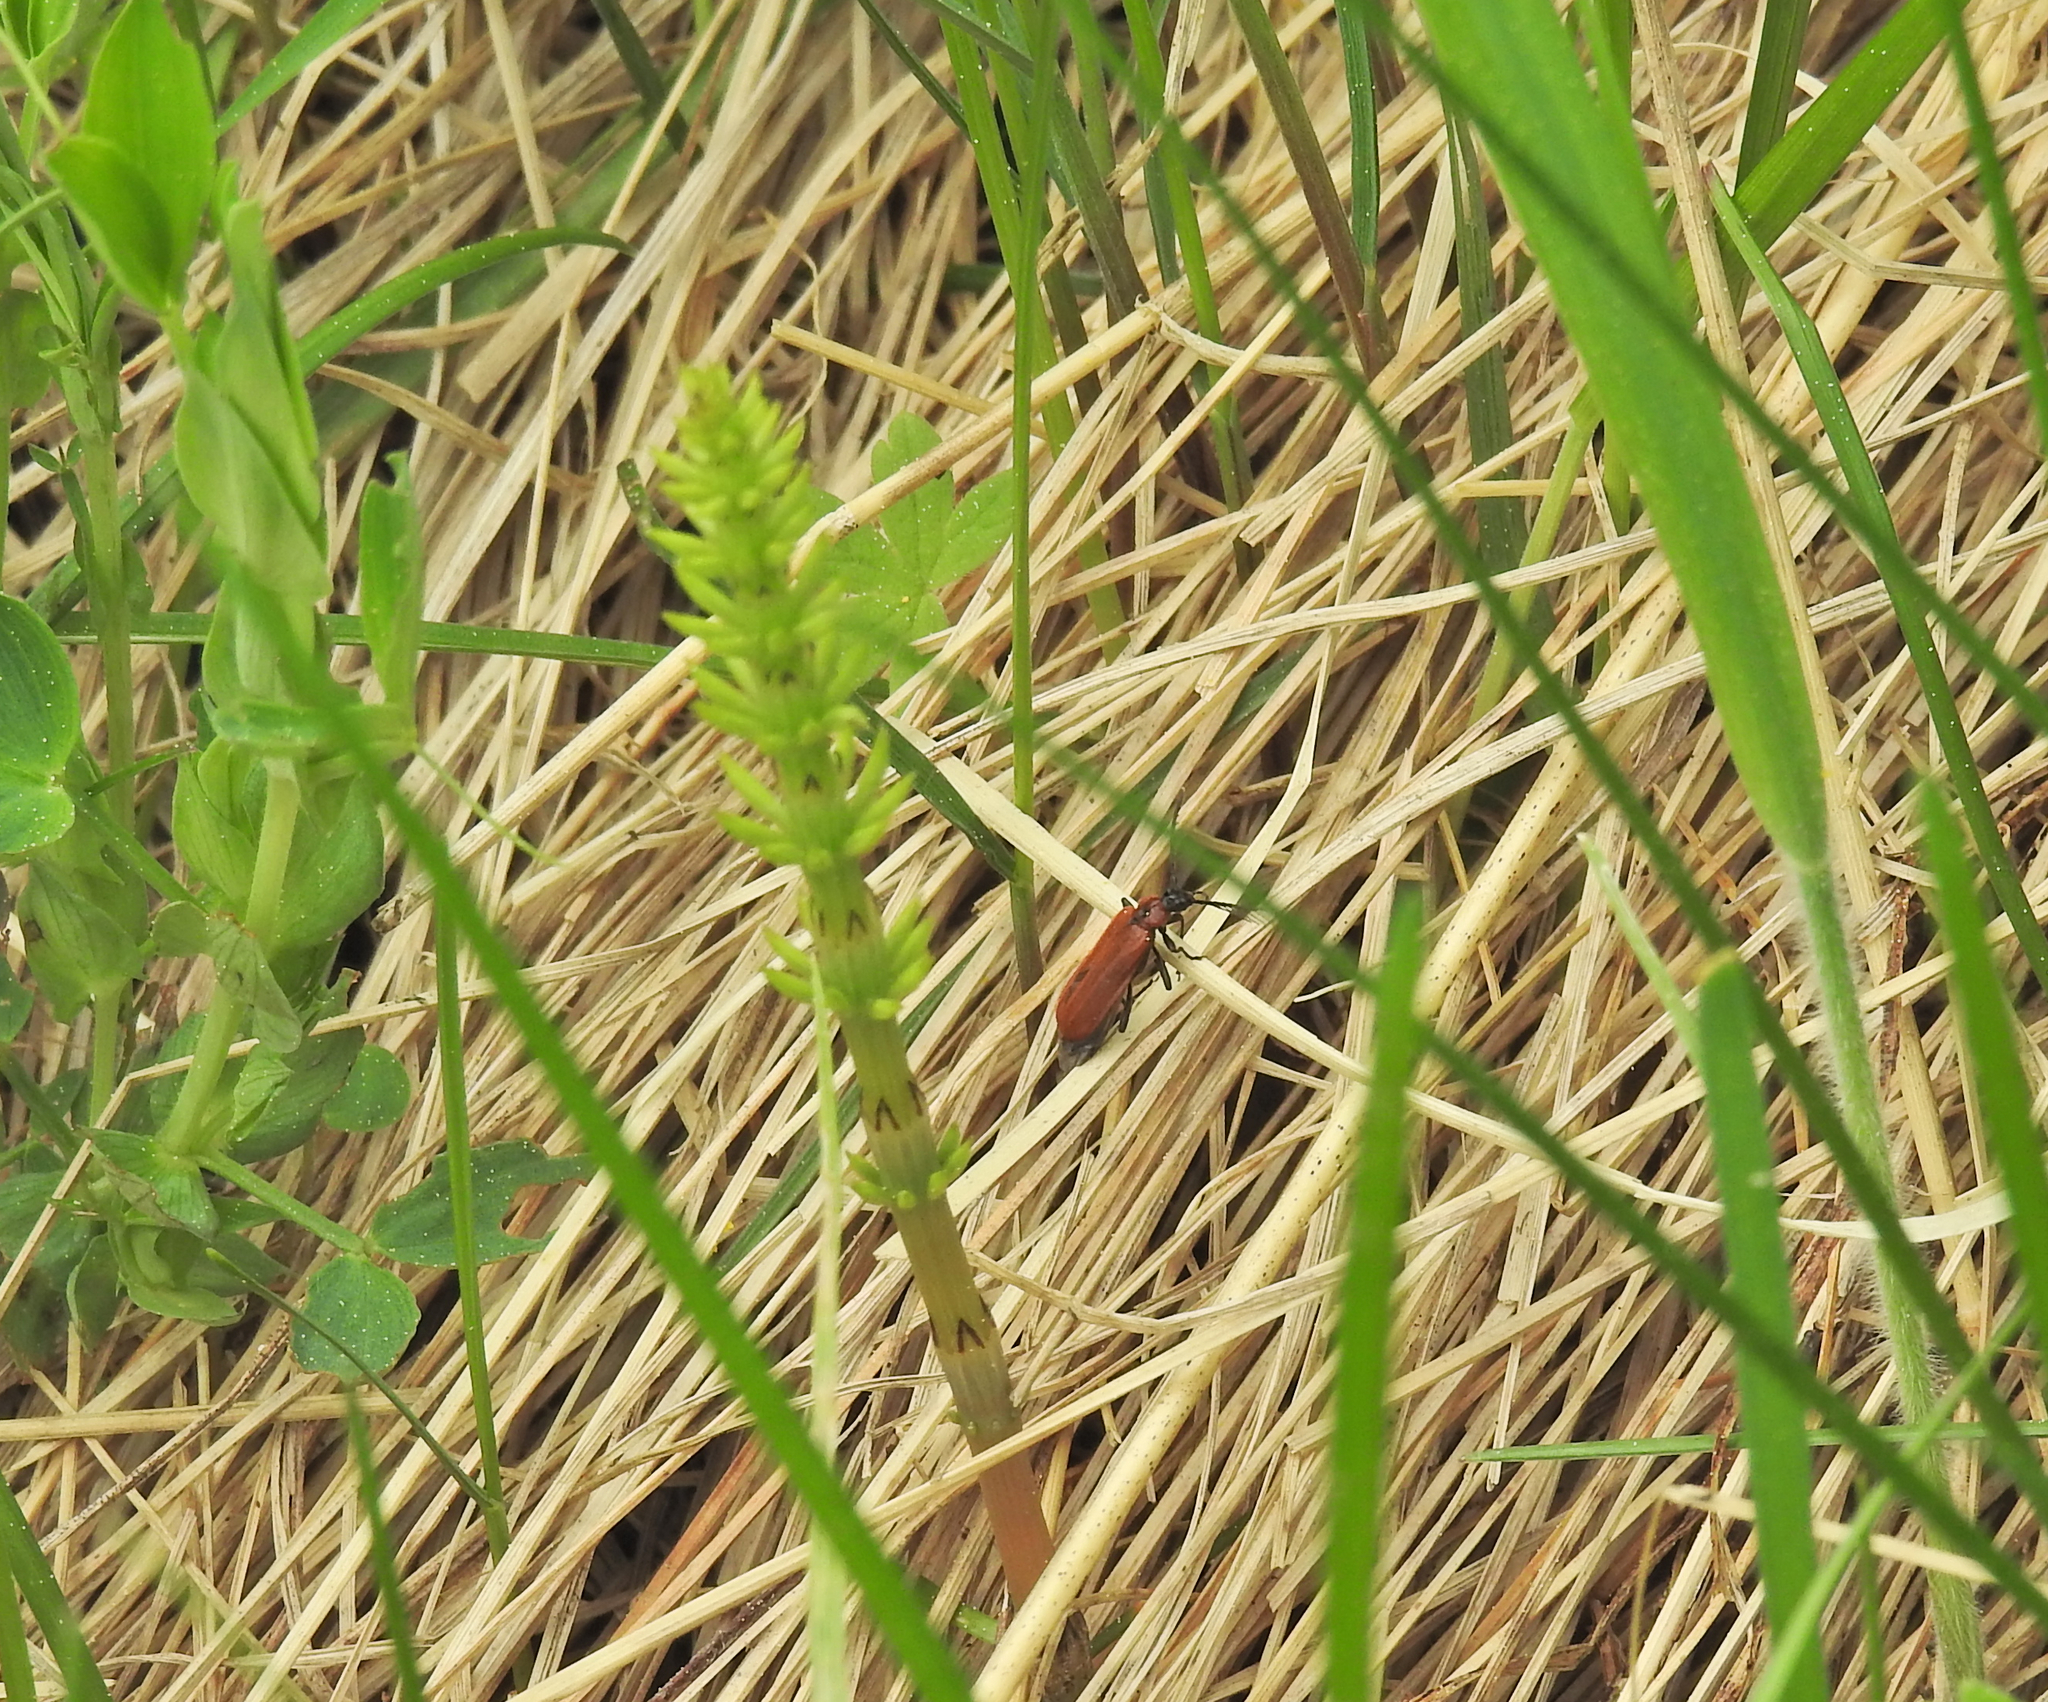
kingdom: Animalia
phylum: Arthropoda
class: Insecta
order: Coleoptera
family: Pyrochroidae
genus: Schizotus
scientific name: Schizotus pectinicornis
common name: Scarce cardinal beetle
